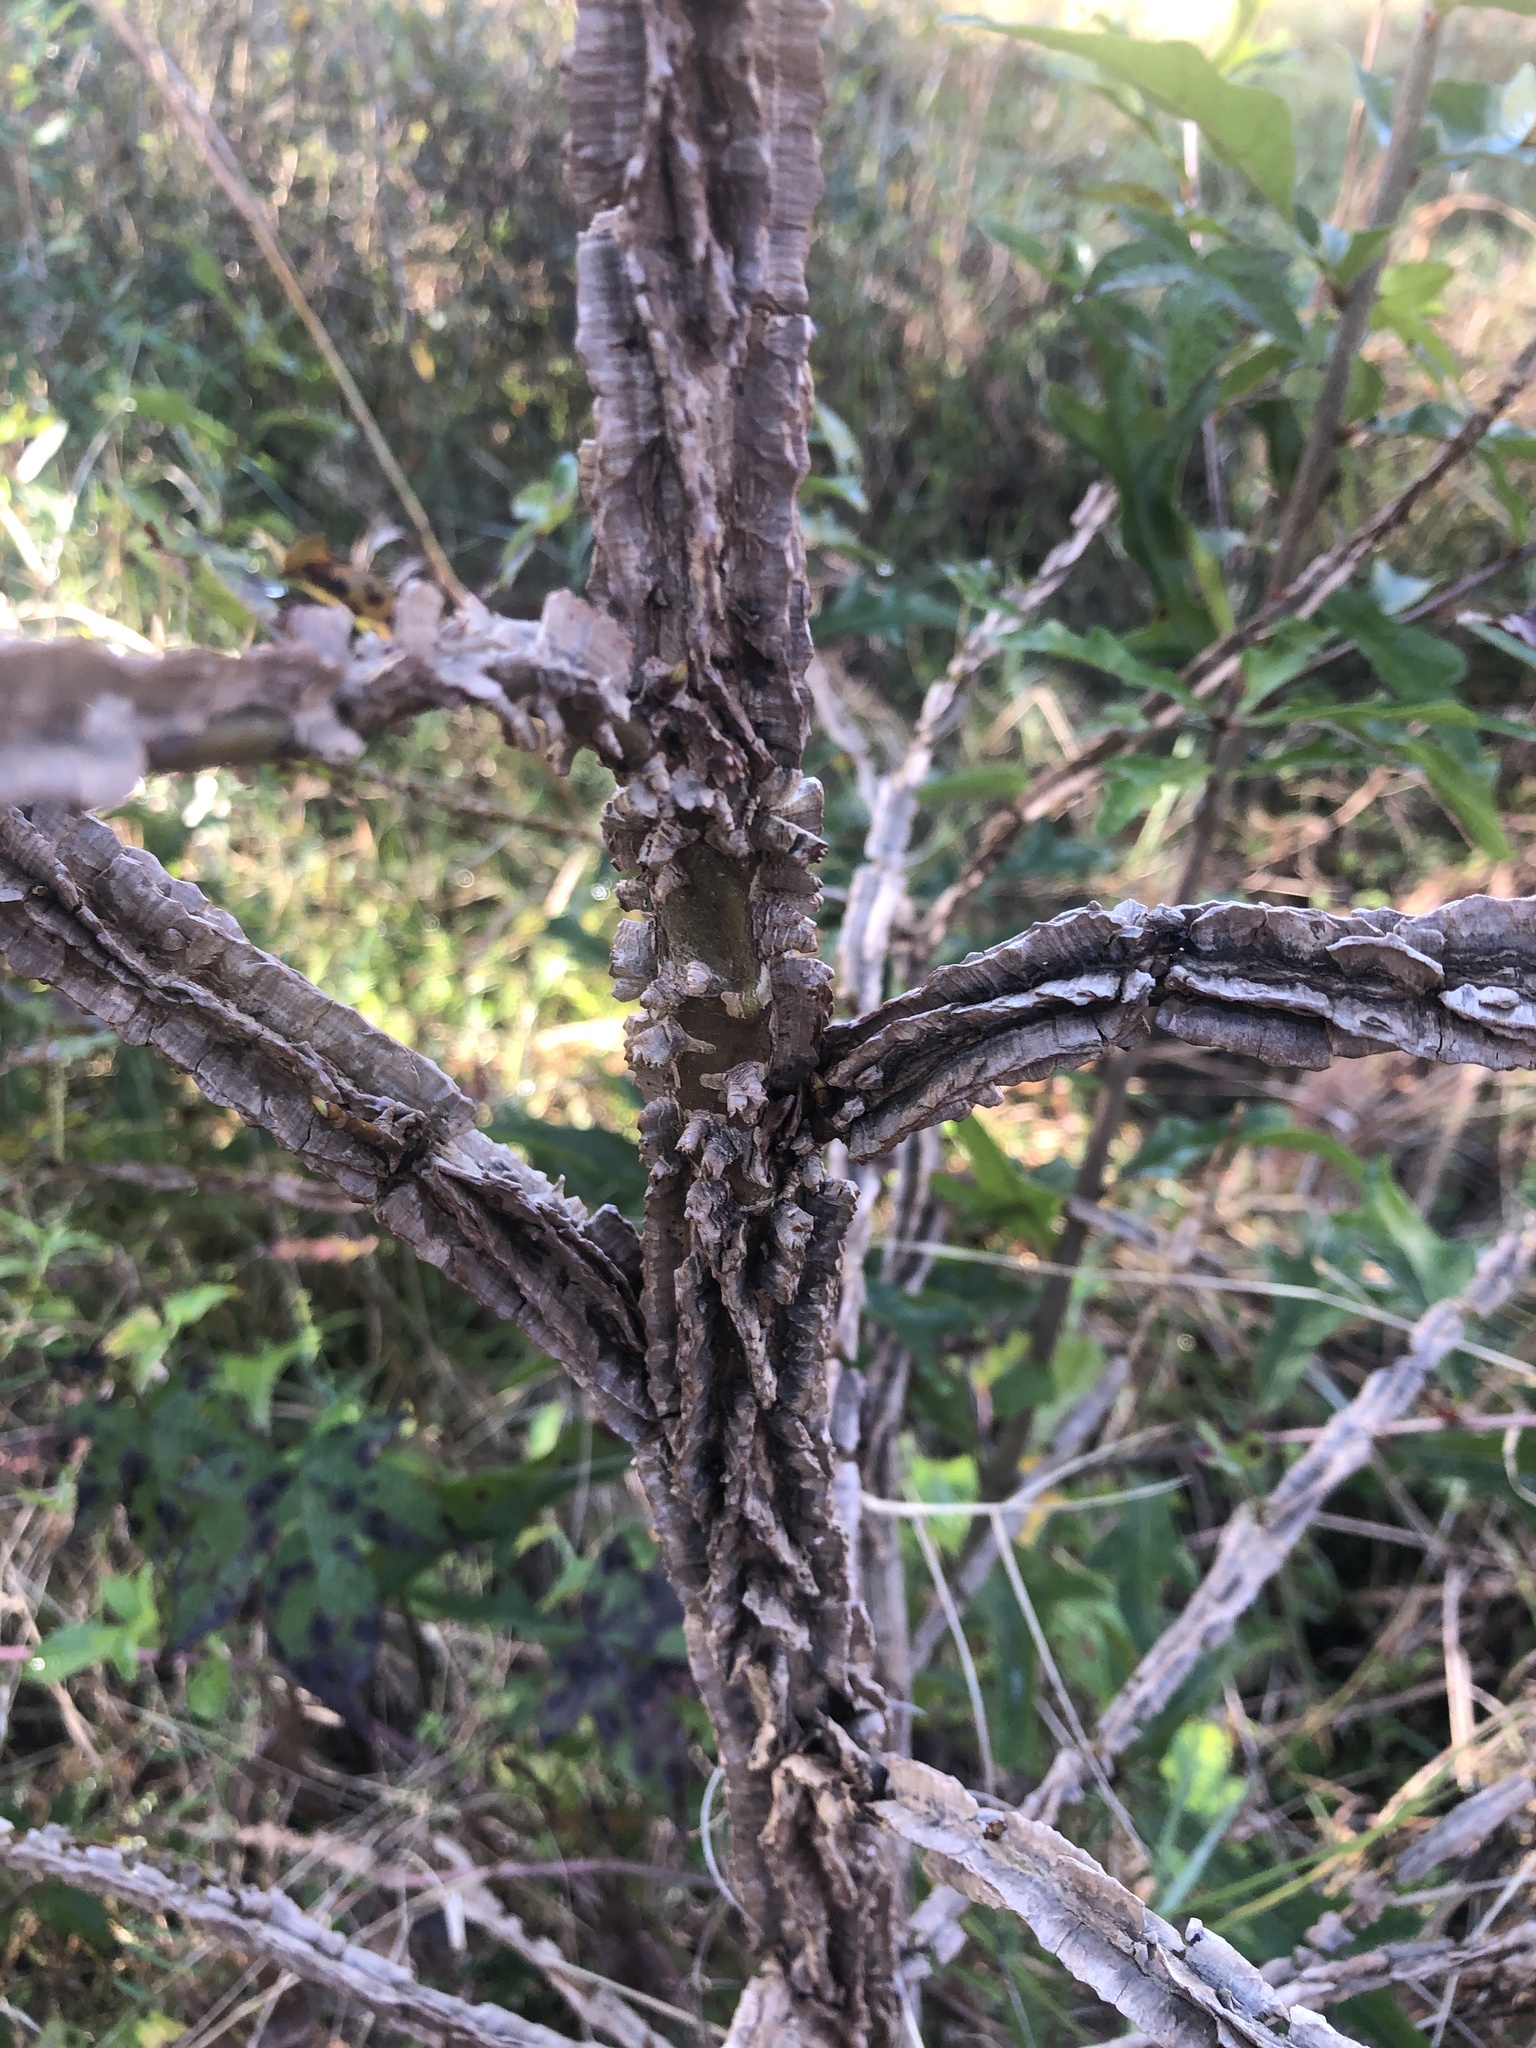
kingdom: Plantae
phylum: Tracheophyta
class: Magnoliopsida
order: Saxifragales
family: Altingiaceae
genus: Liquidambar
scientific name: Liquidambar styraciflua
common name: Sweet gum
